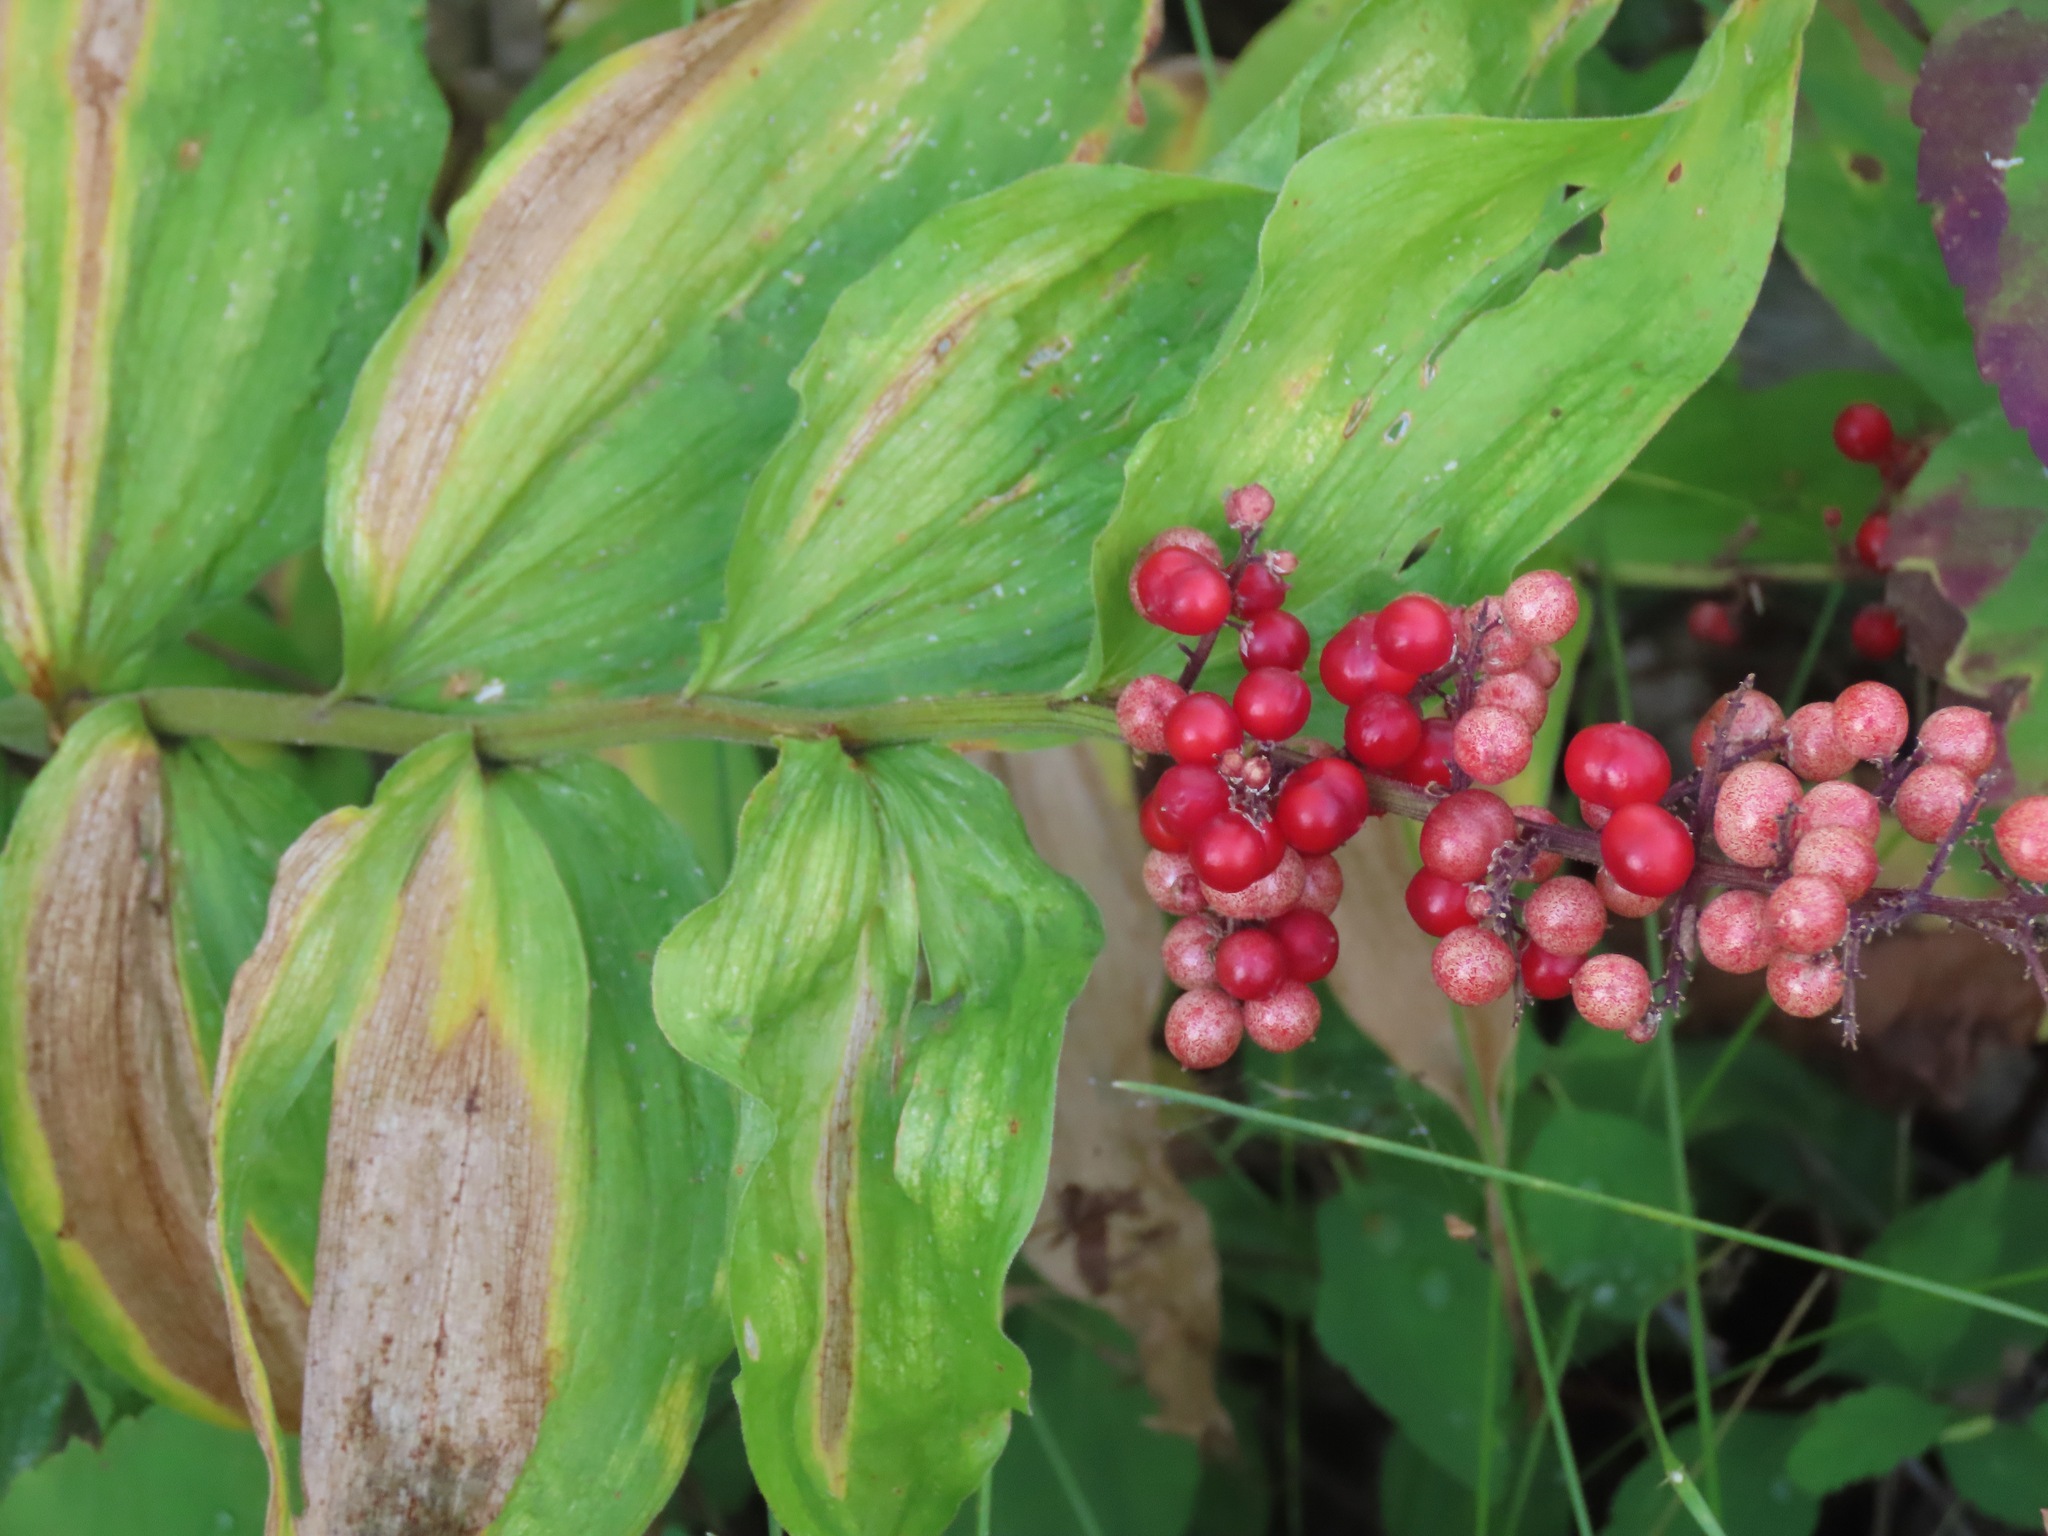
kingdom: Plantae
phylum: Tracheophyta
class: Liliopsida
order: Asparagales
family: Asparagaceae
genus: Maianthemum
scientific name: Maianthemum racemosum
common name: False spikenard
